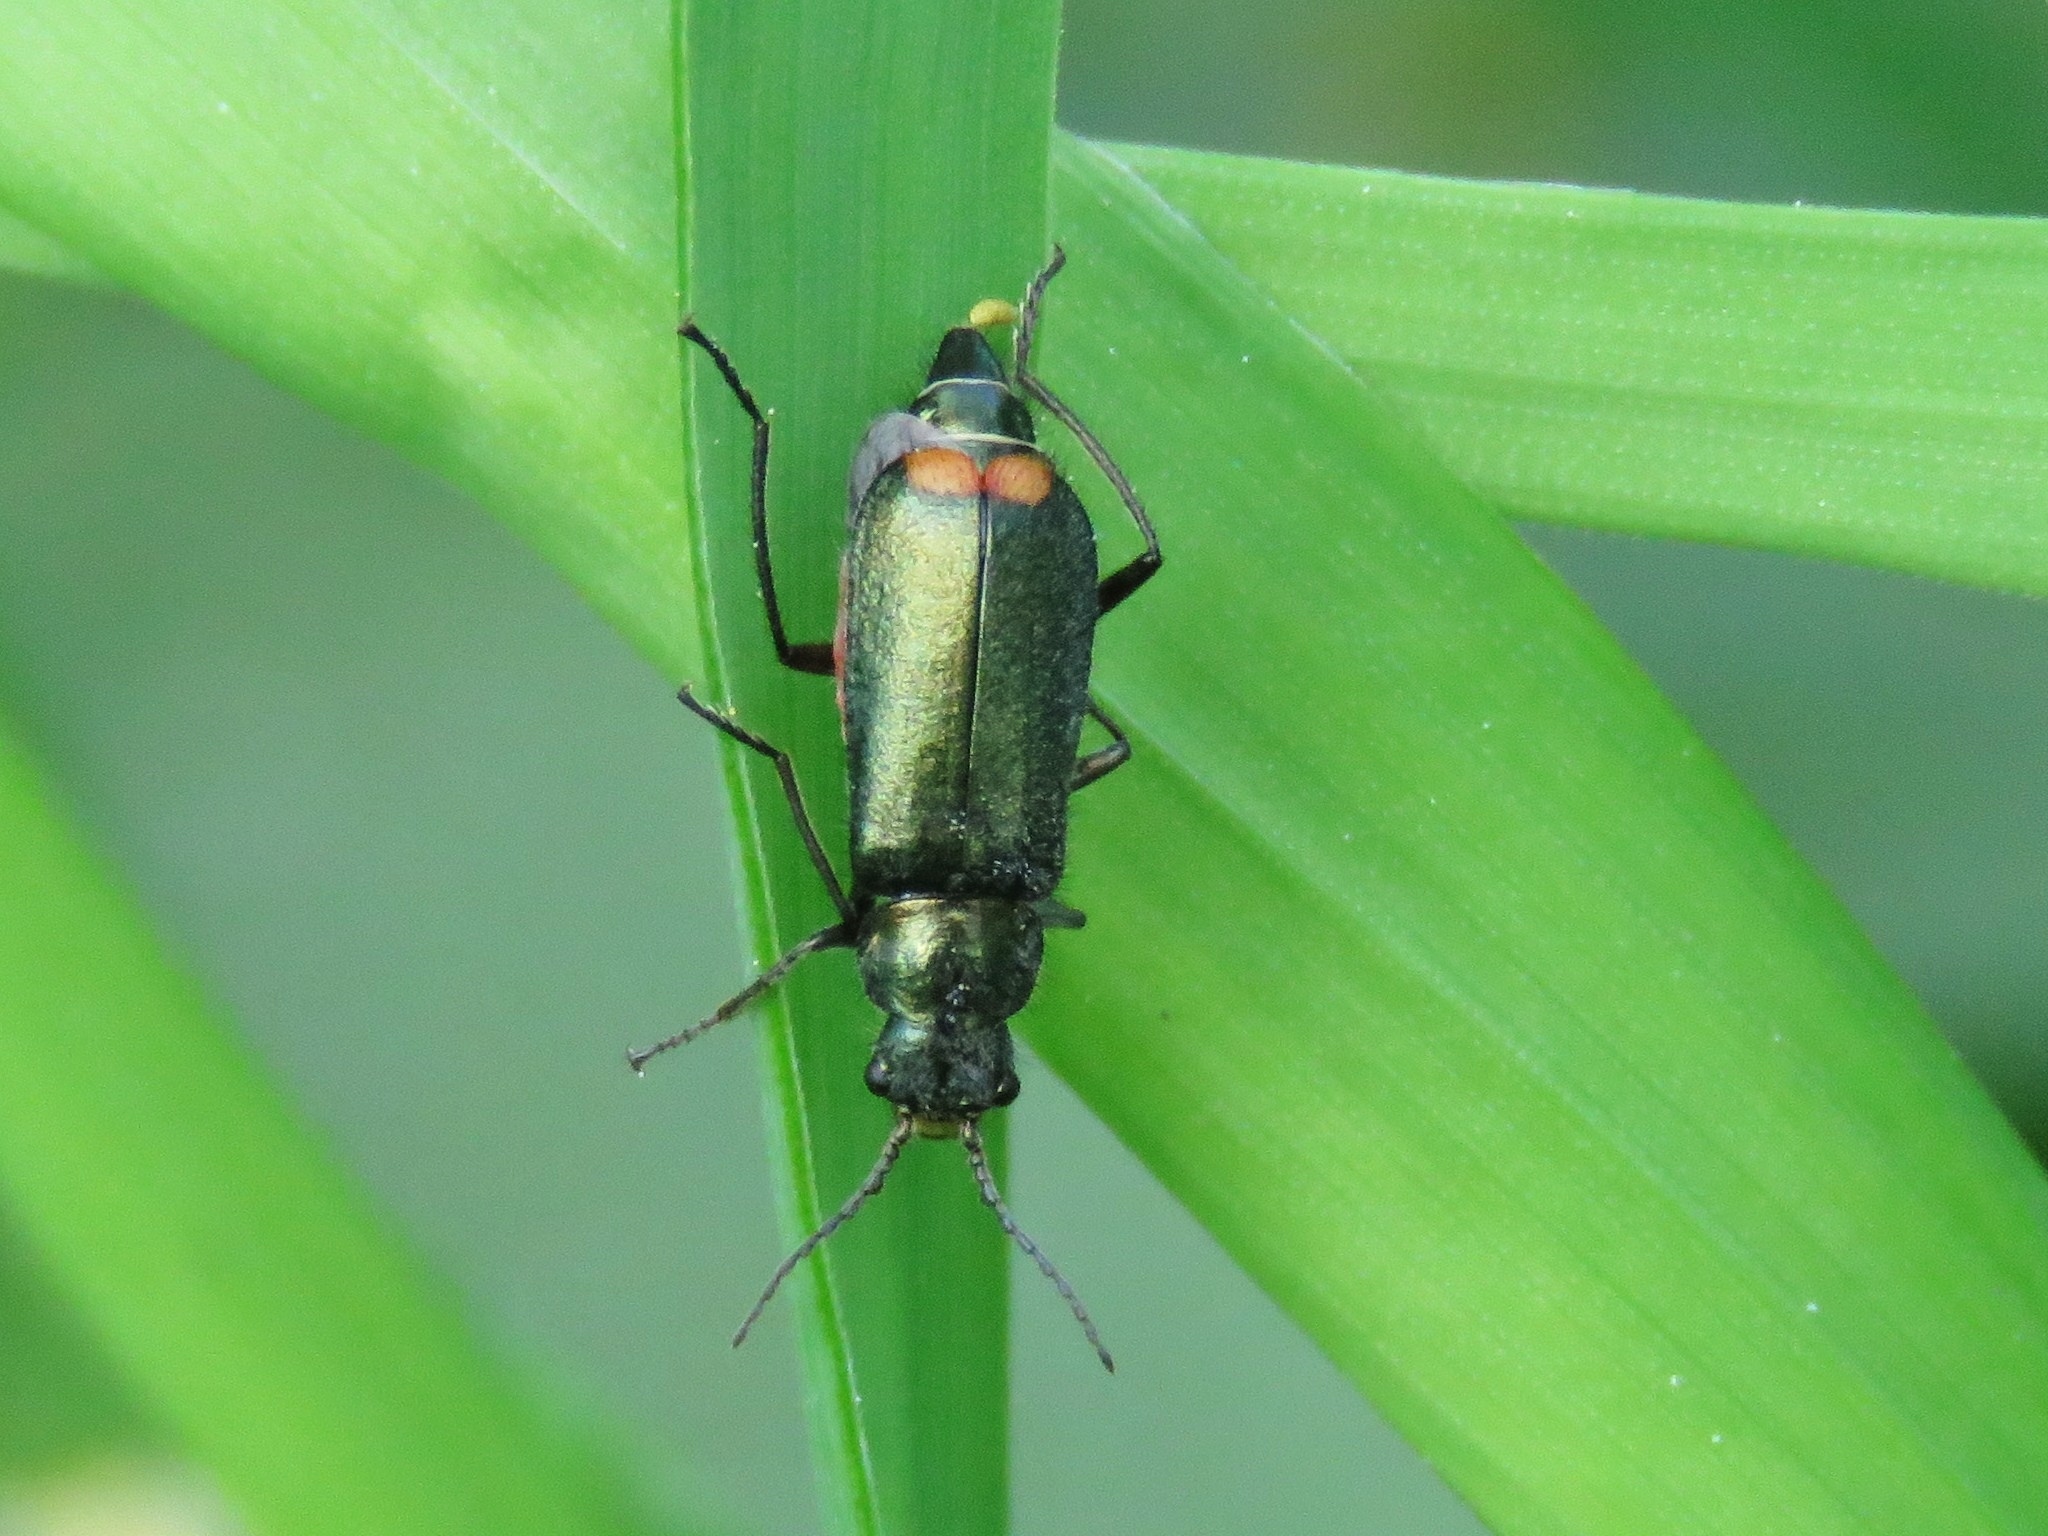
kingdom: Animalia
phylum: Arthropoda
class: Insecta
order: Coleoptera
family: Melyridae
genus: Malachius
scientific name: Malachius bipustulatus
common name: Malachite beetle
